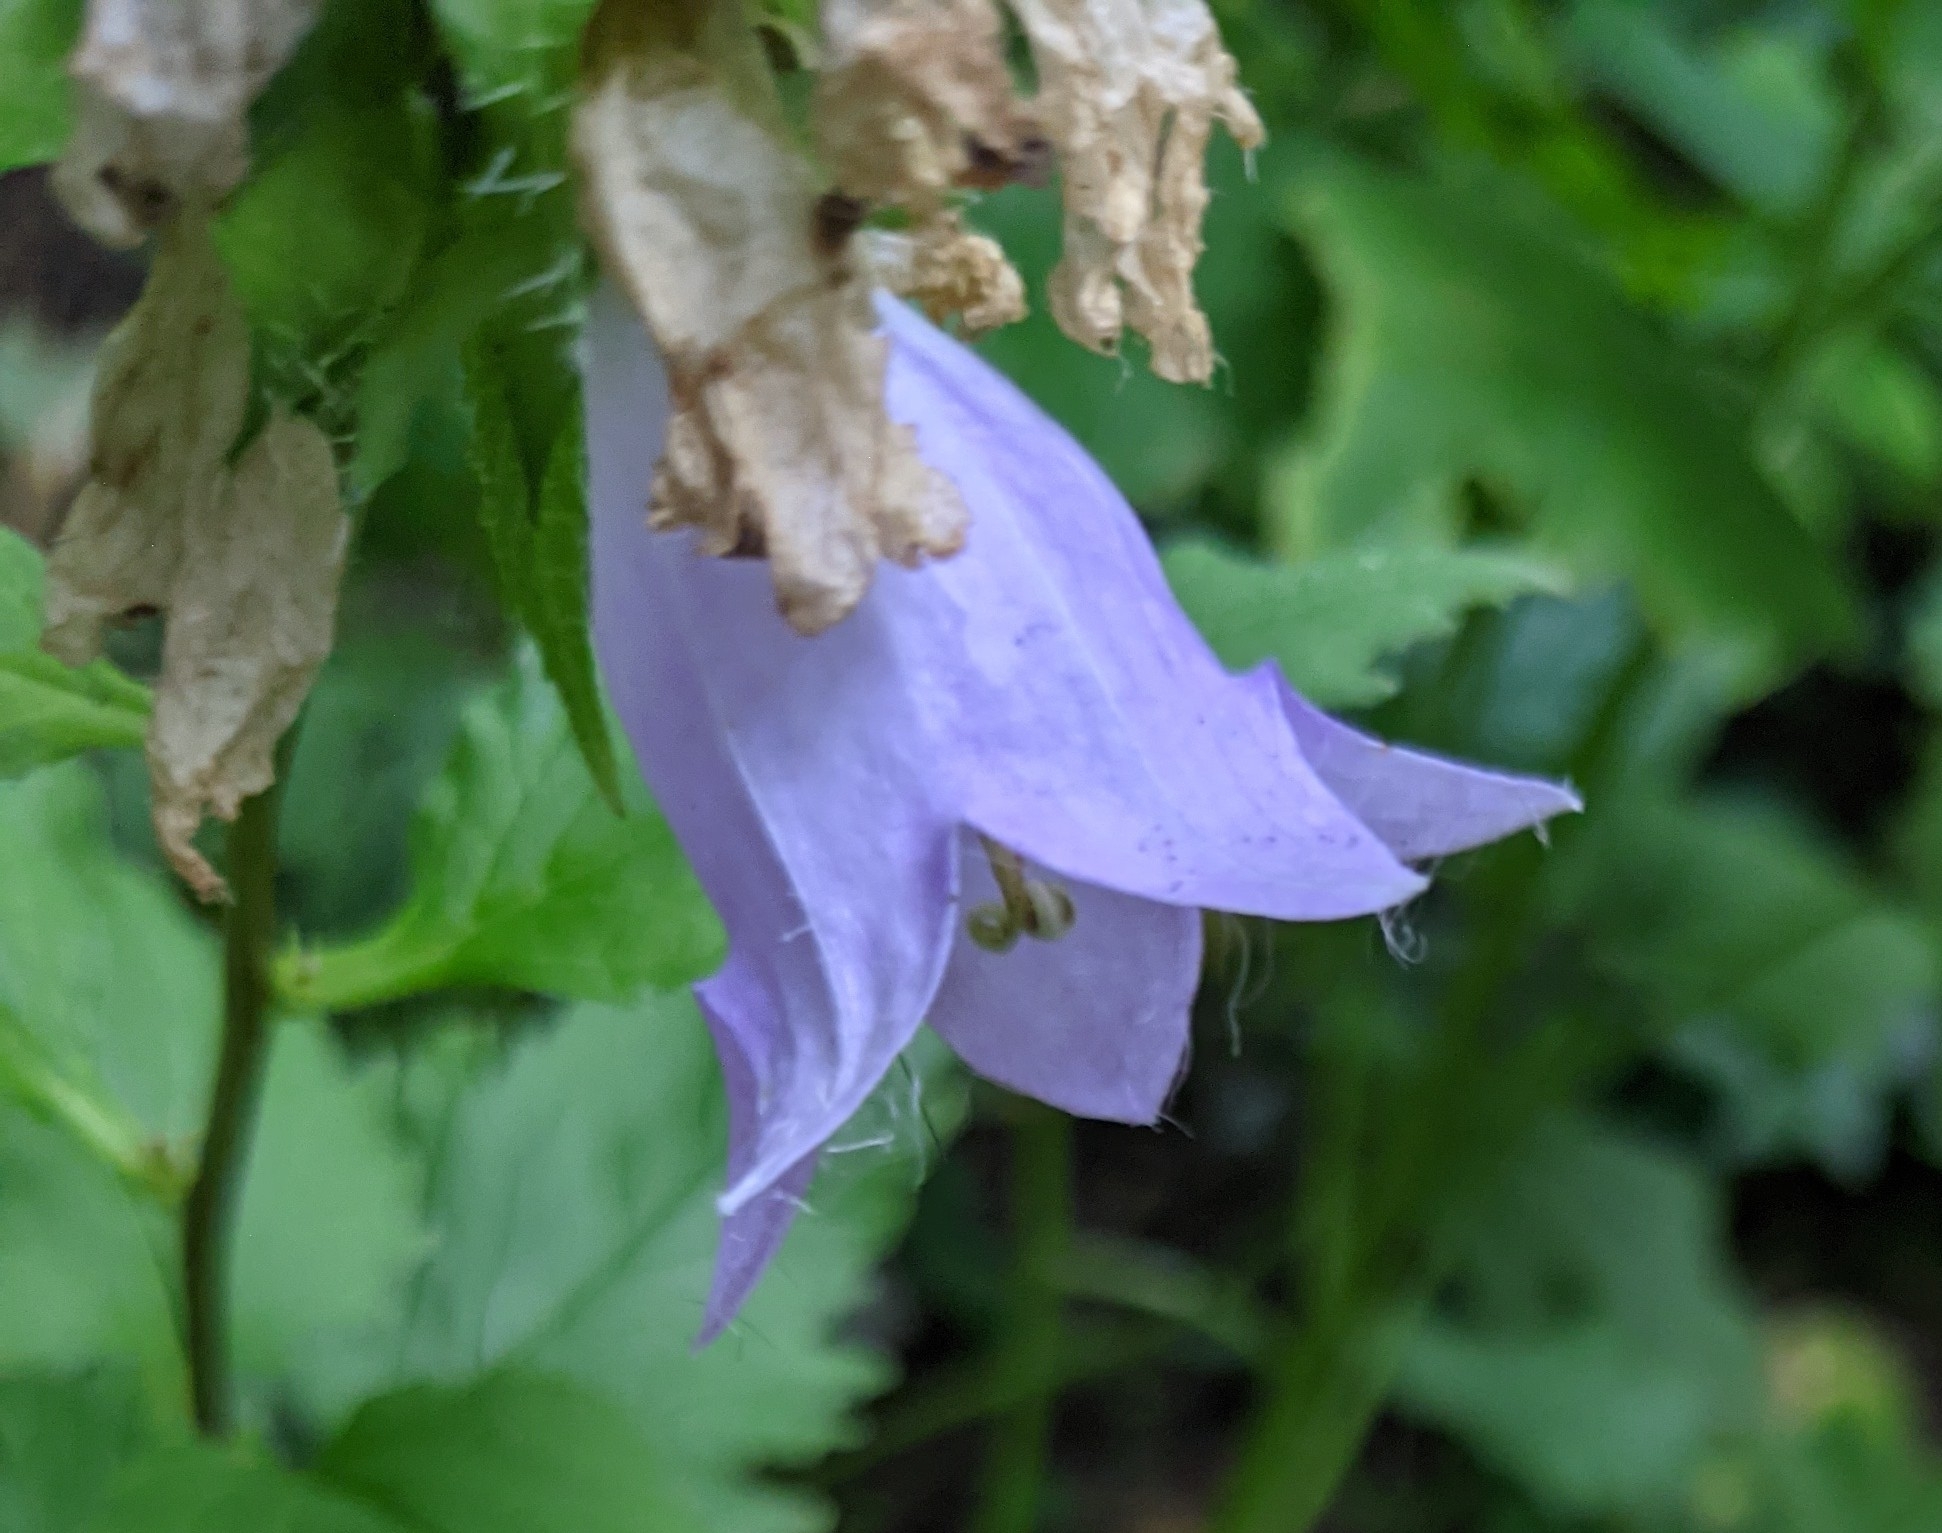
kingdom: Plantae
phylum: Tracheophyta
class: Magnoliopsida
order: Asterales
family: Campanulaceae
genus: Campanula
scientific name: Campanula trachelium
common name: Nettle-leaved bellflower
